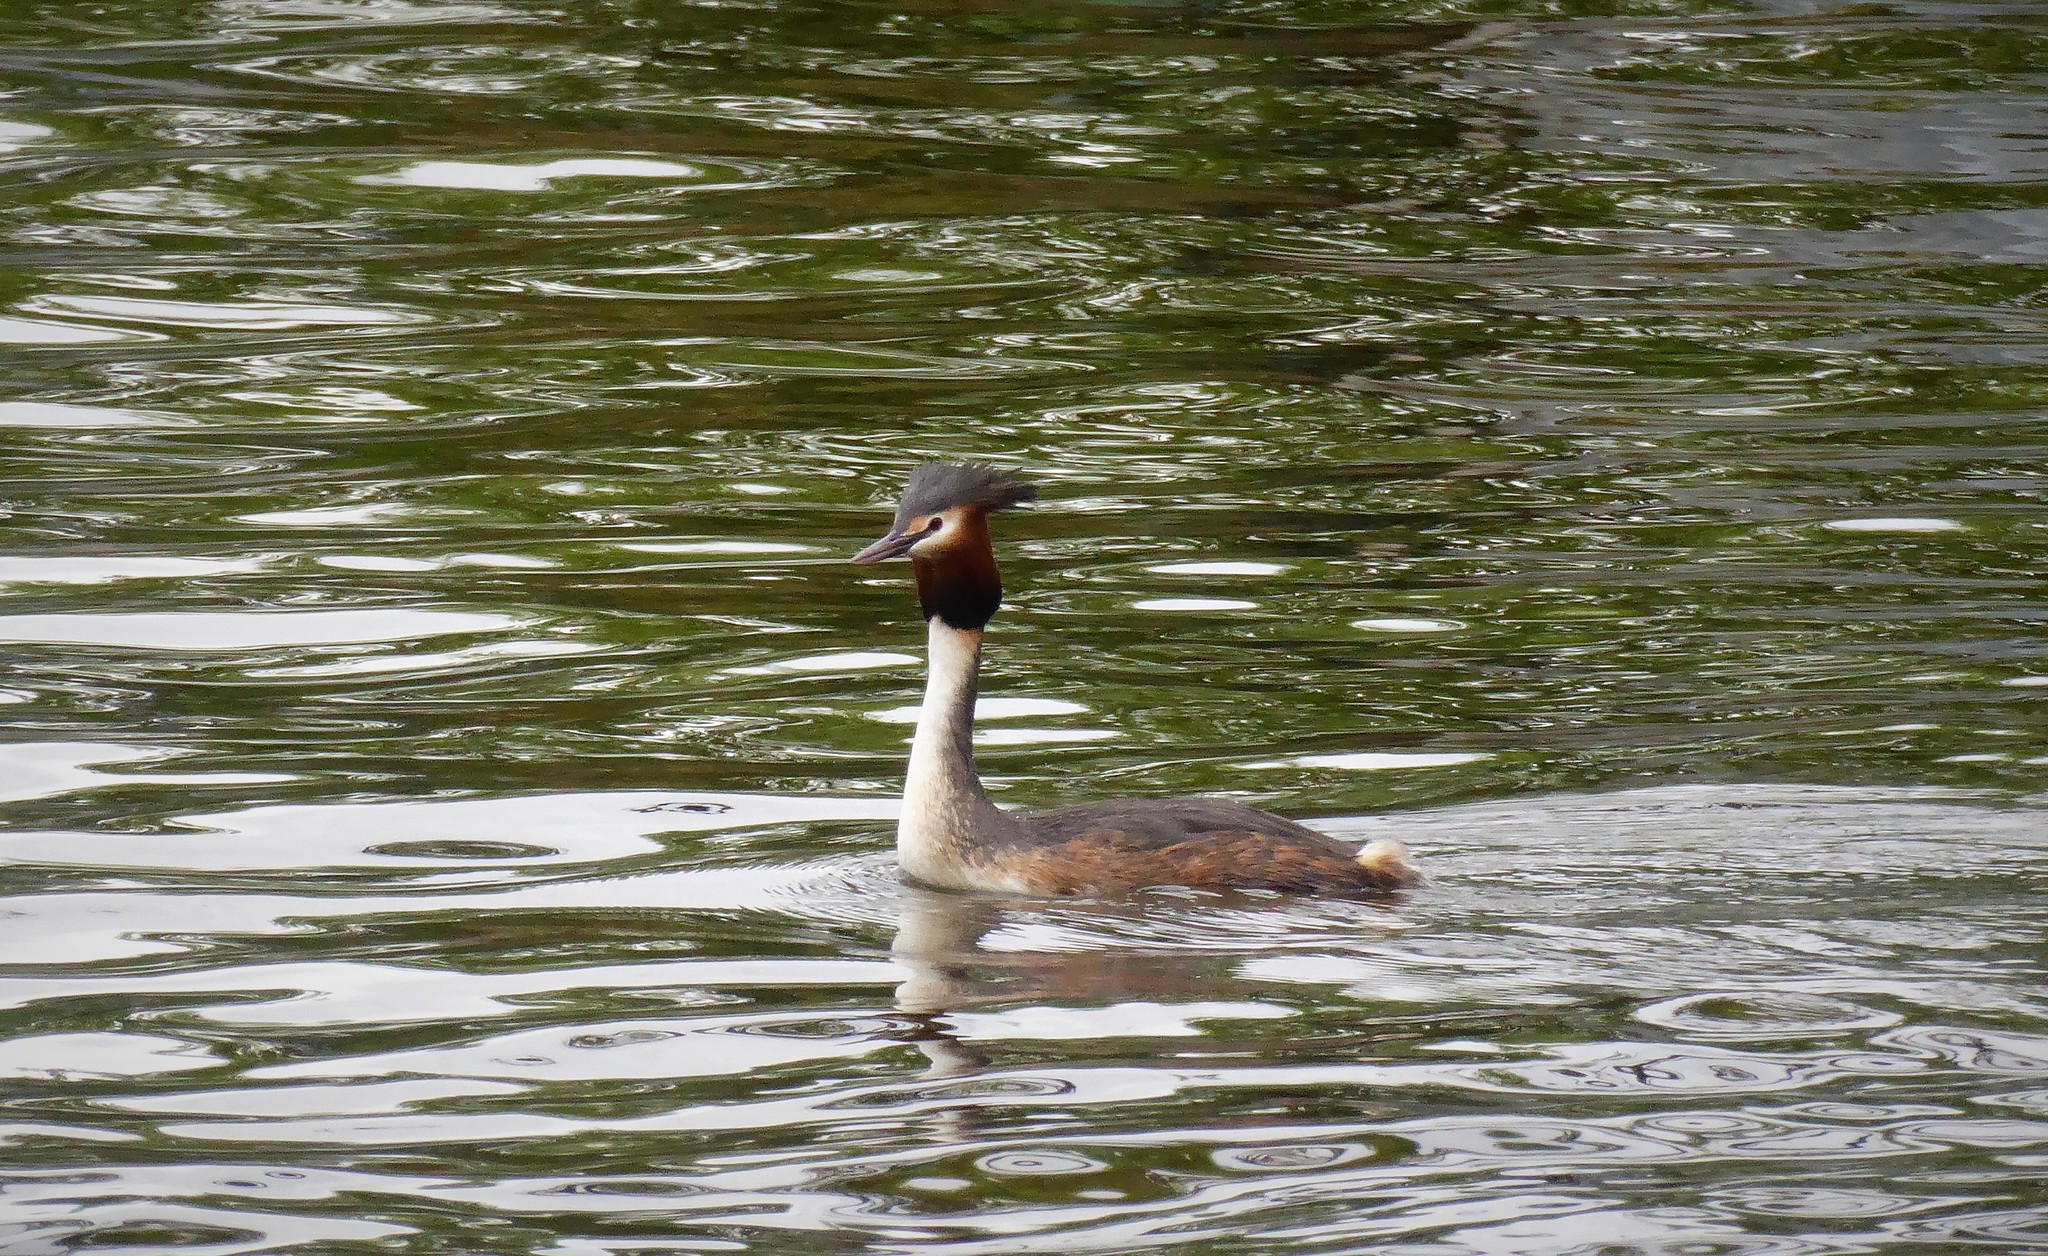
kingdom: Animalia
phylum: Chordata
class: Aves
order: Podicipediformes
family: Podicipedidae
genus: Podiceps
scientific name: Podiceps cristatus
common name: Great crested grebe
